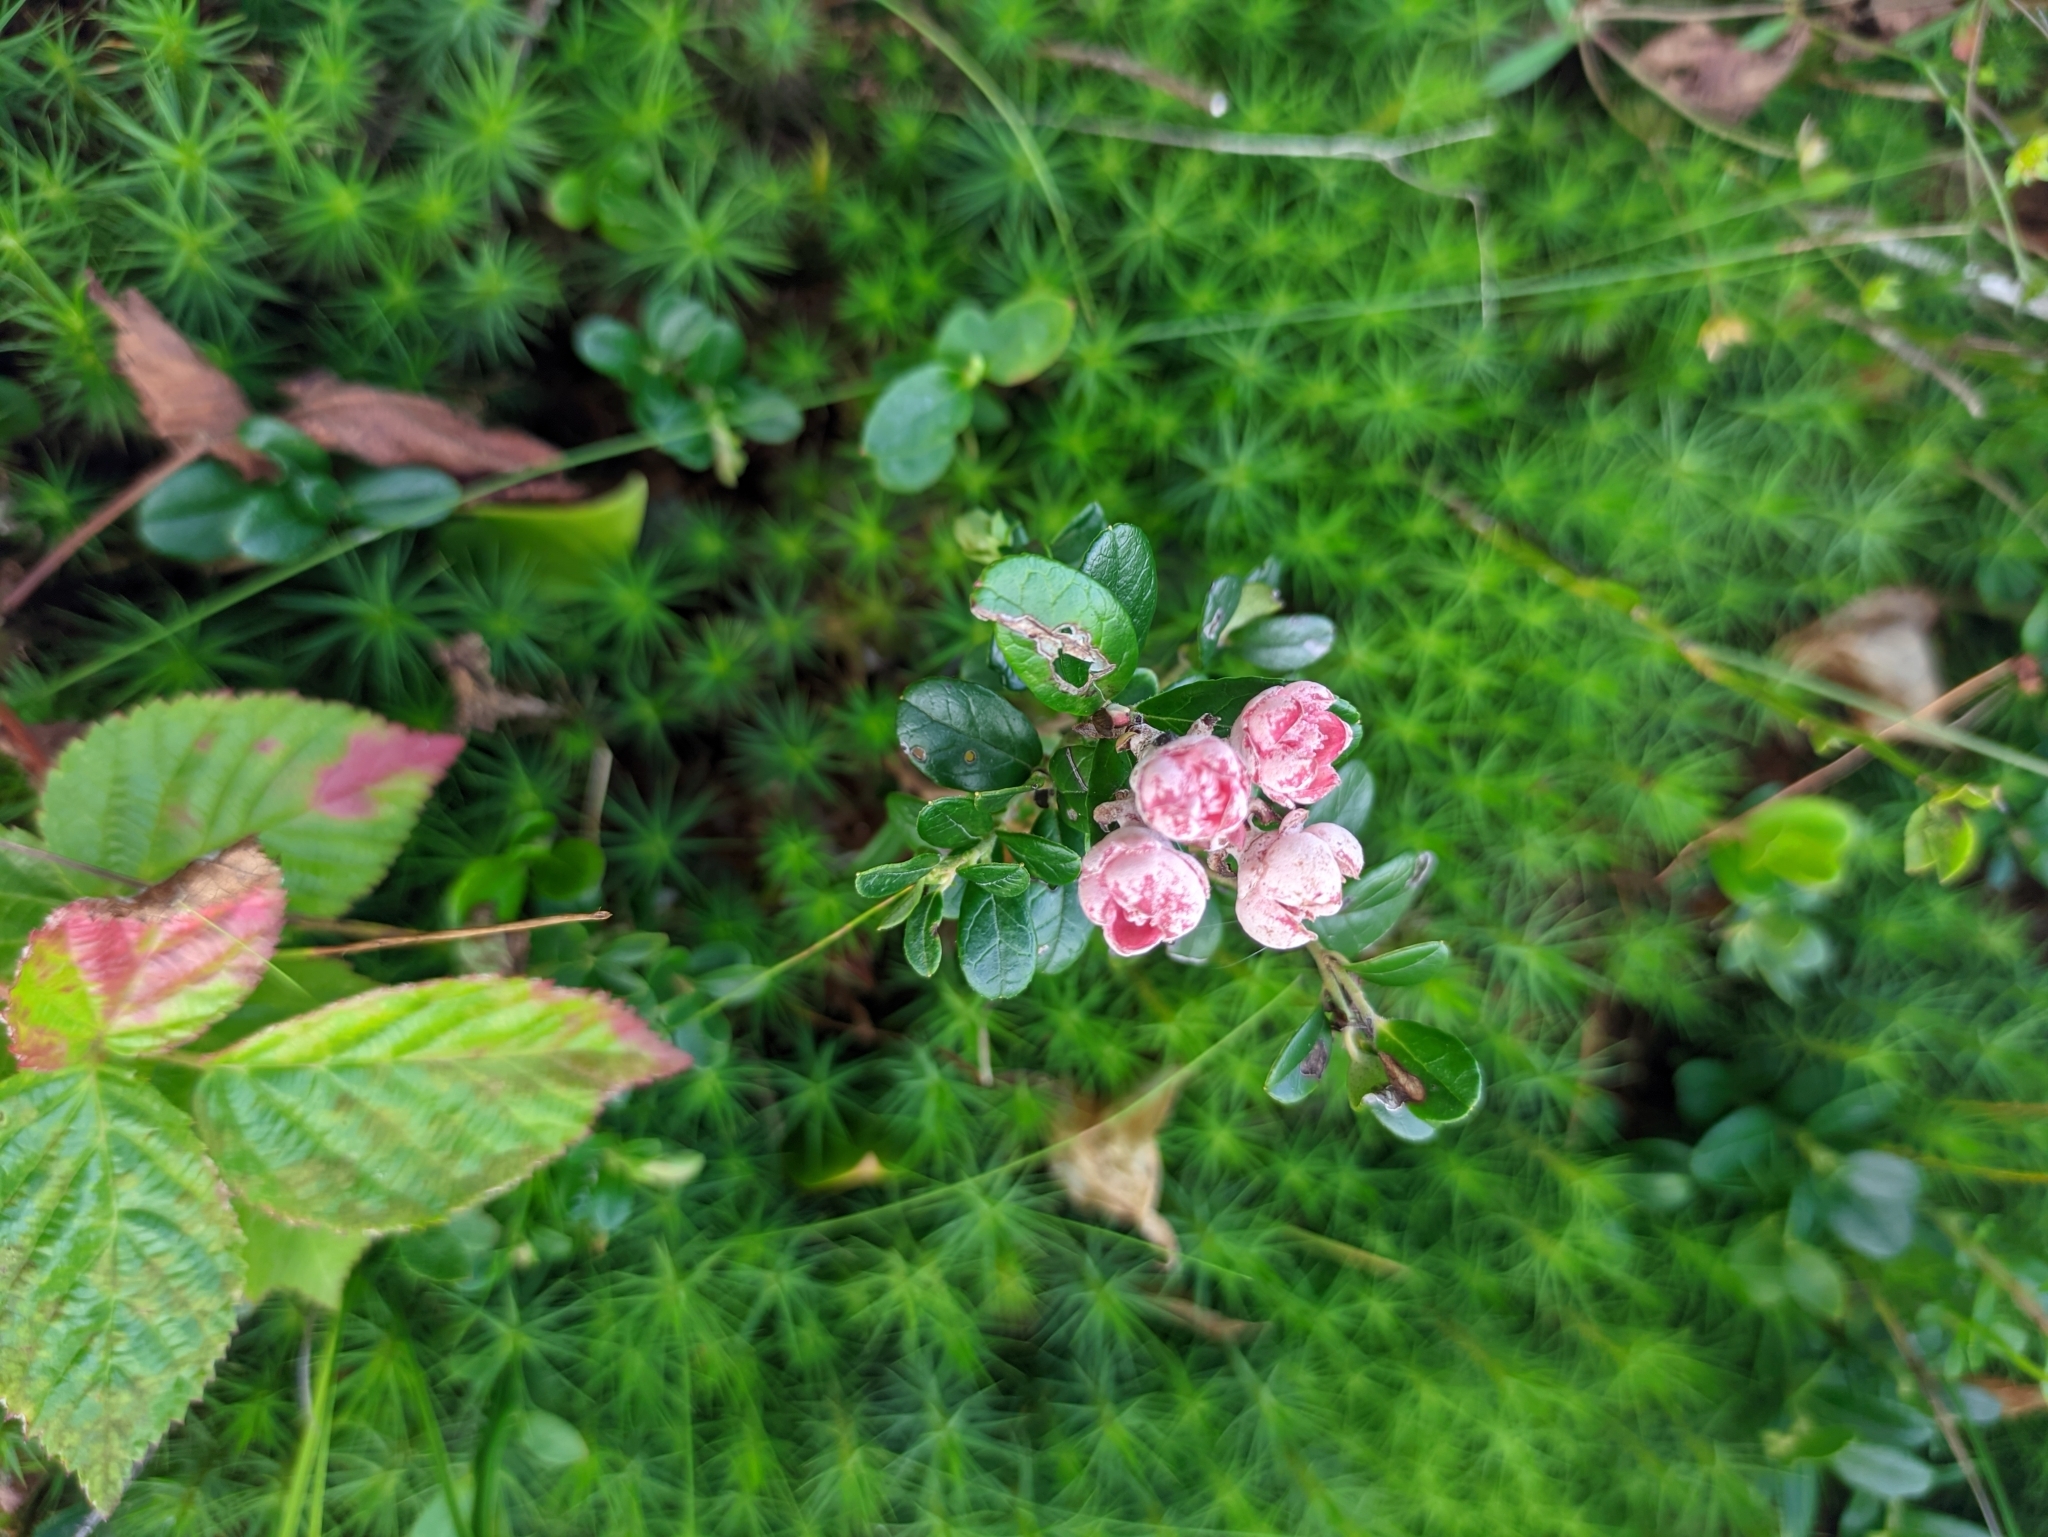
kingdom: Fungi
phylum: Basidiomycota
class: Exobasidiomycetes
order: Exobasidiales
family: Exobasidiaceae
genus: Exobasidium
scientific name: Exobasidium vaccinii
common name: Cowberry redleaf
